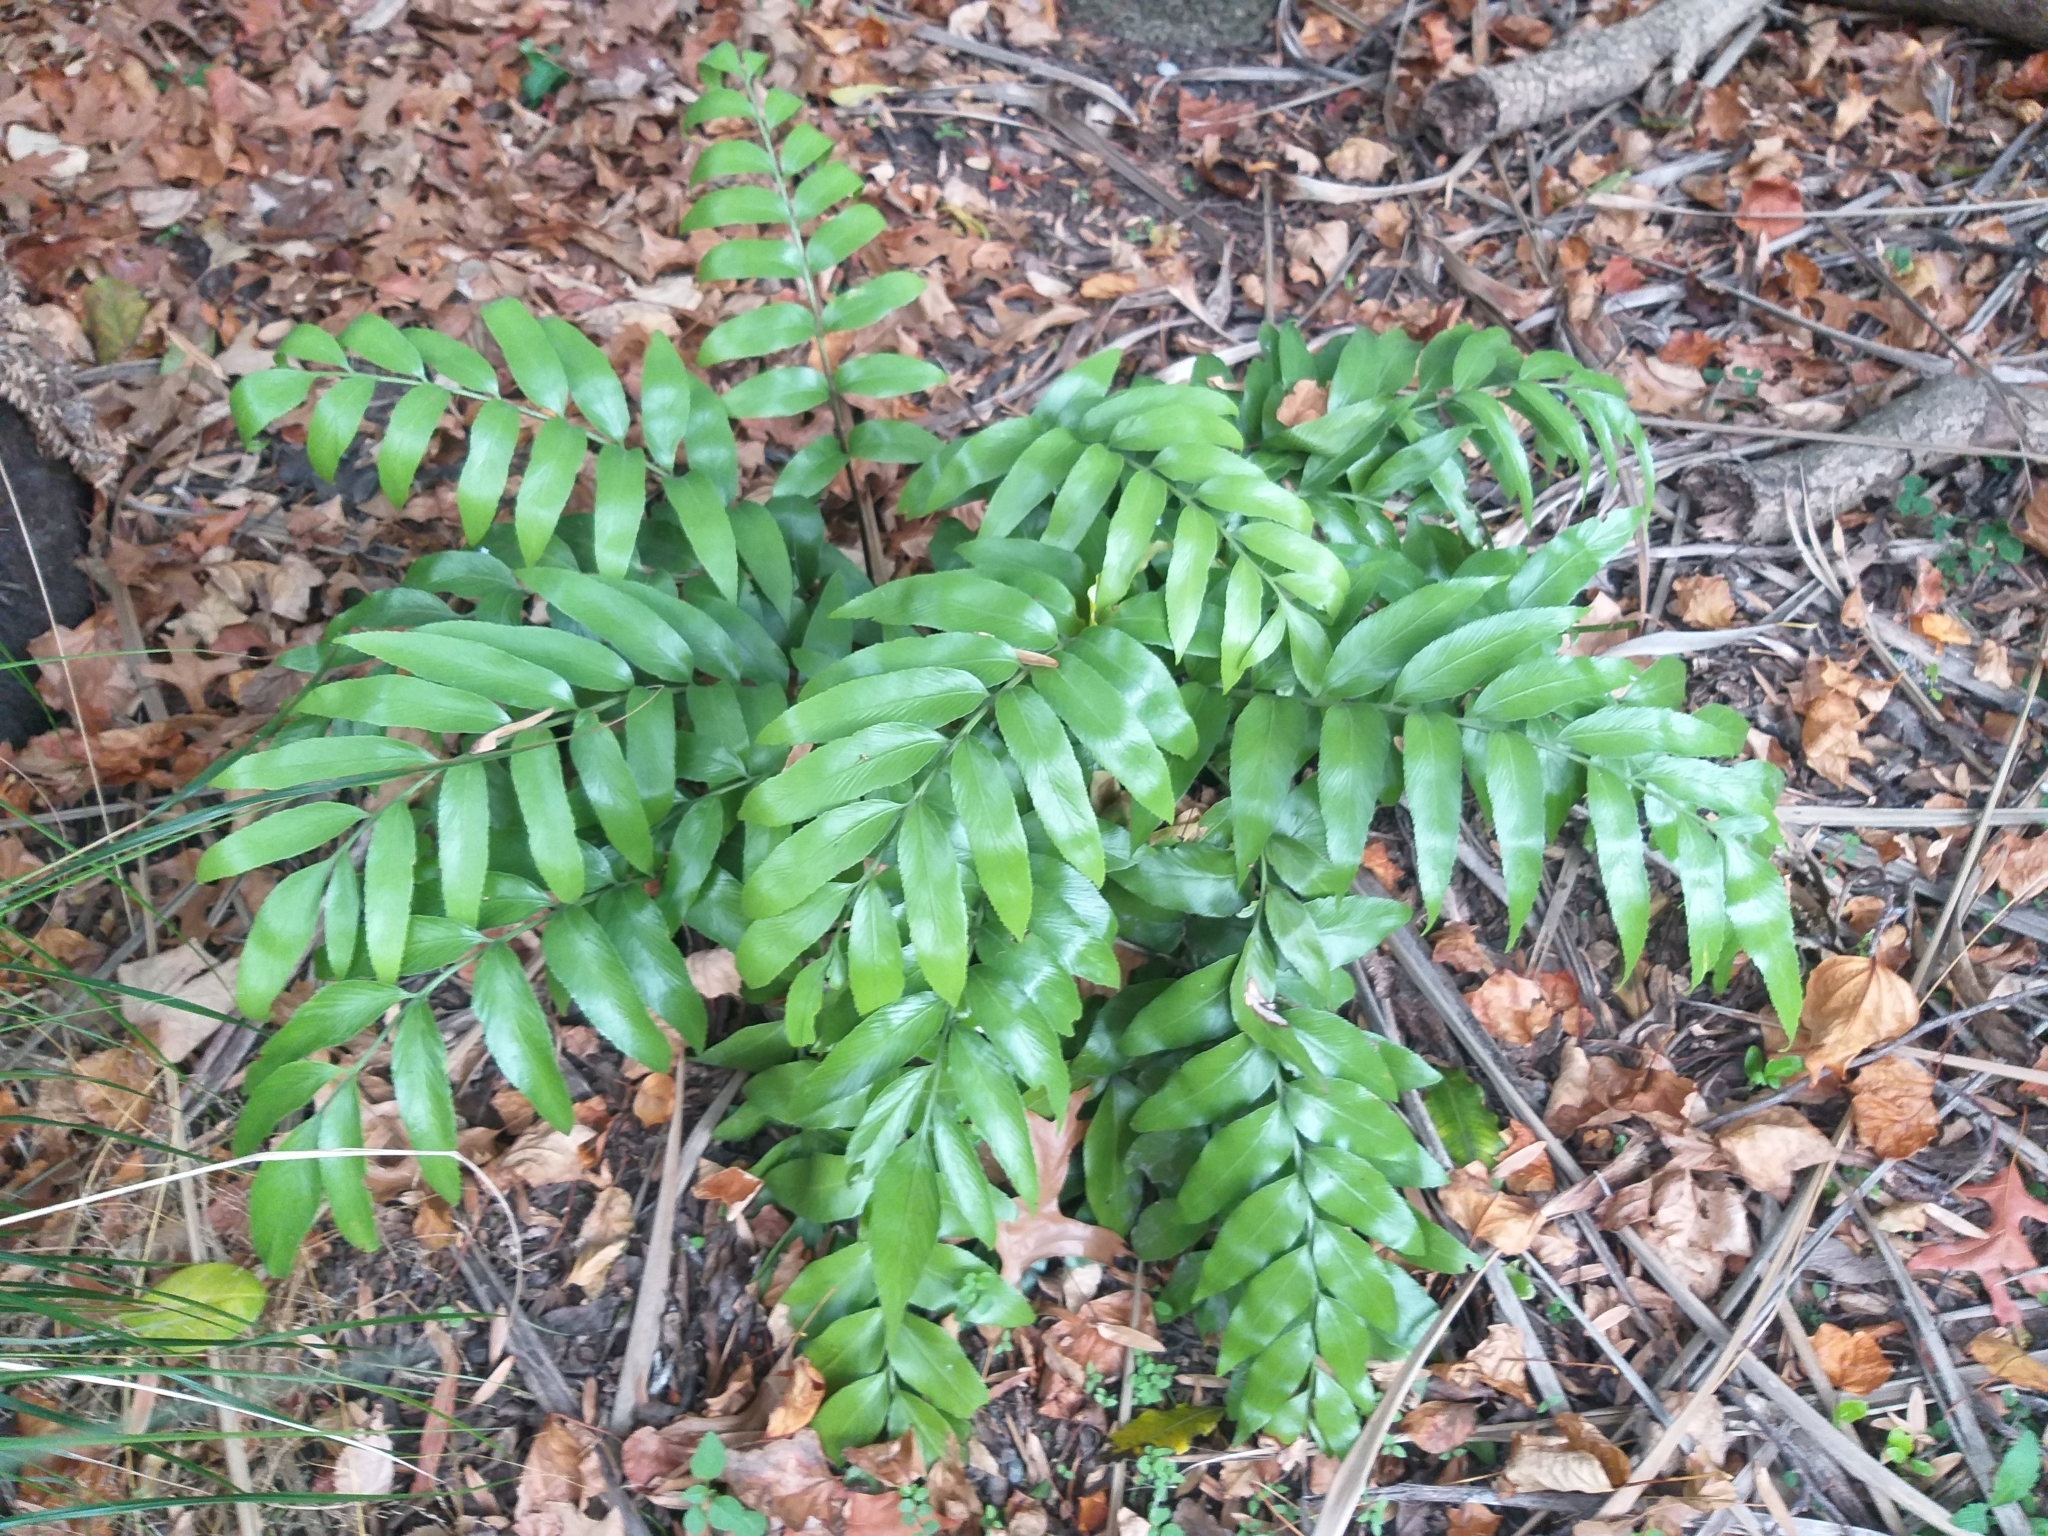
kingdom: Plantae
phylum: Tracheophyta
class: Polypodiopsida
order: Polypodiales
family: Aspleniaceae
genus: Asplenium
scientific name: Asplenium oblongifolium
